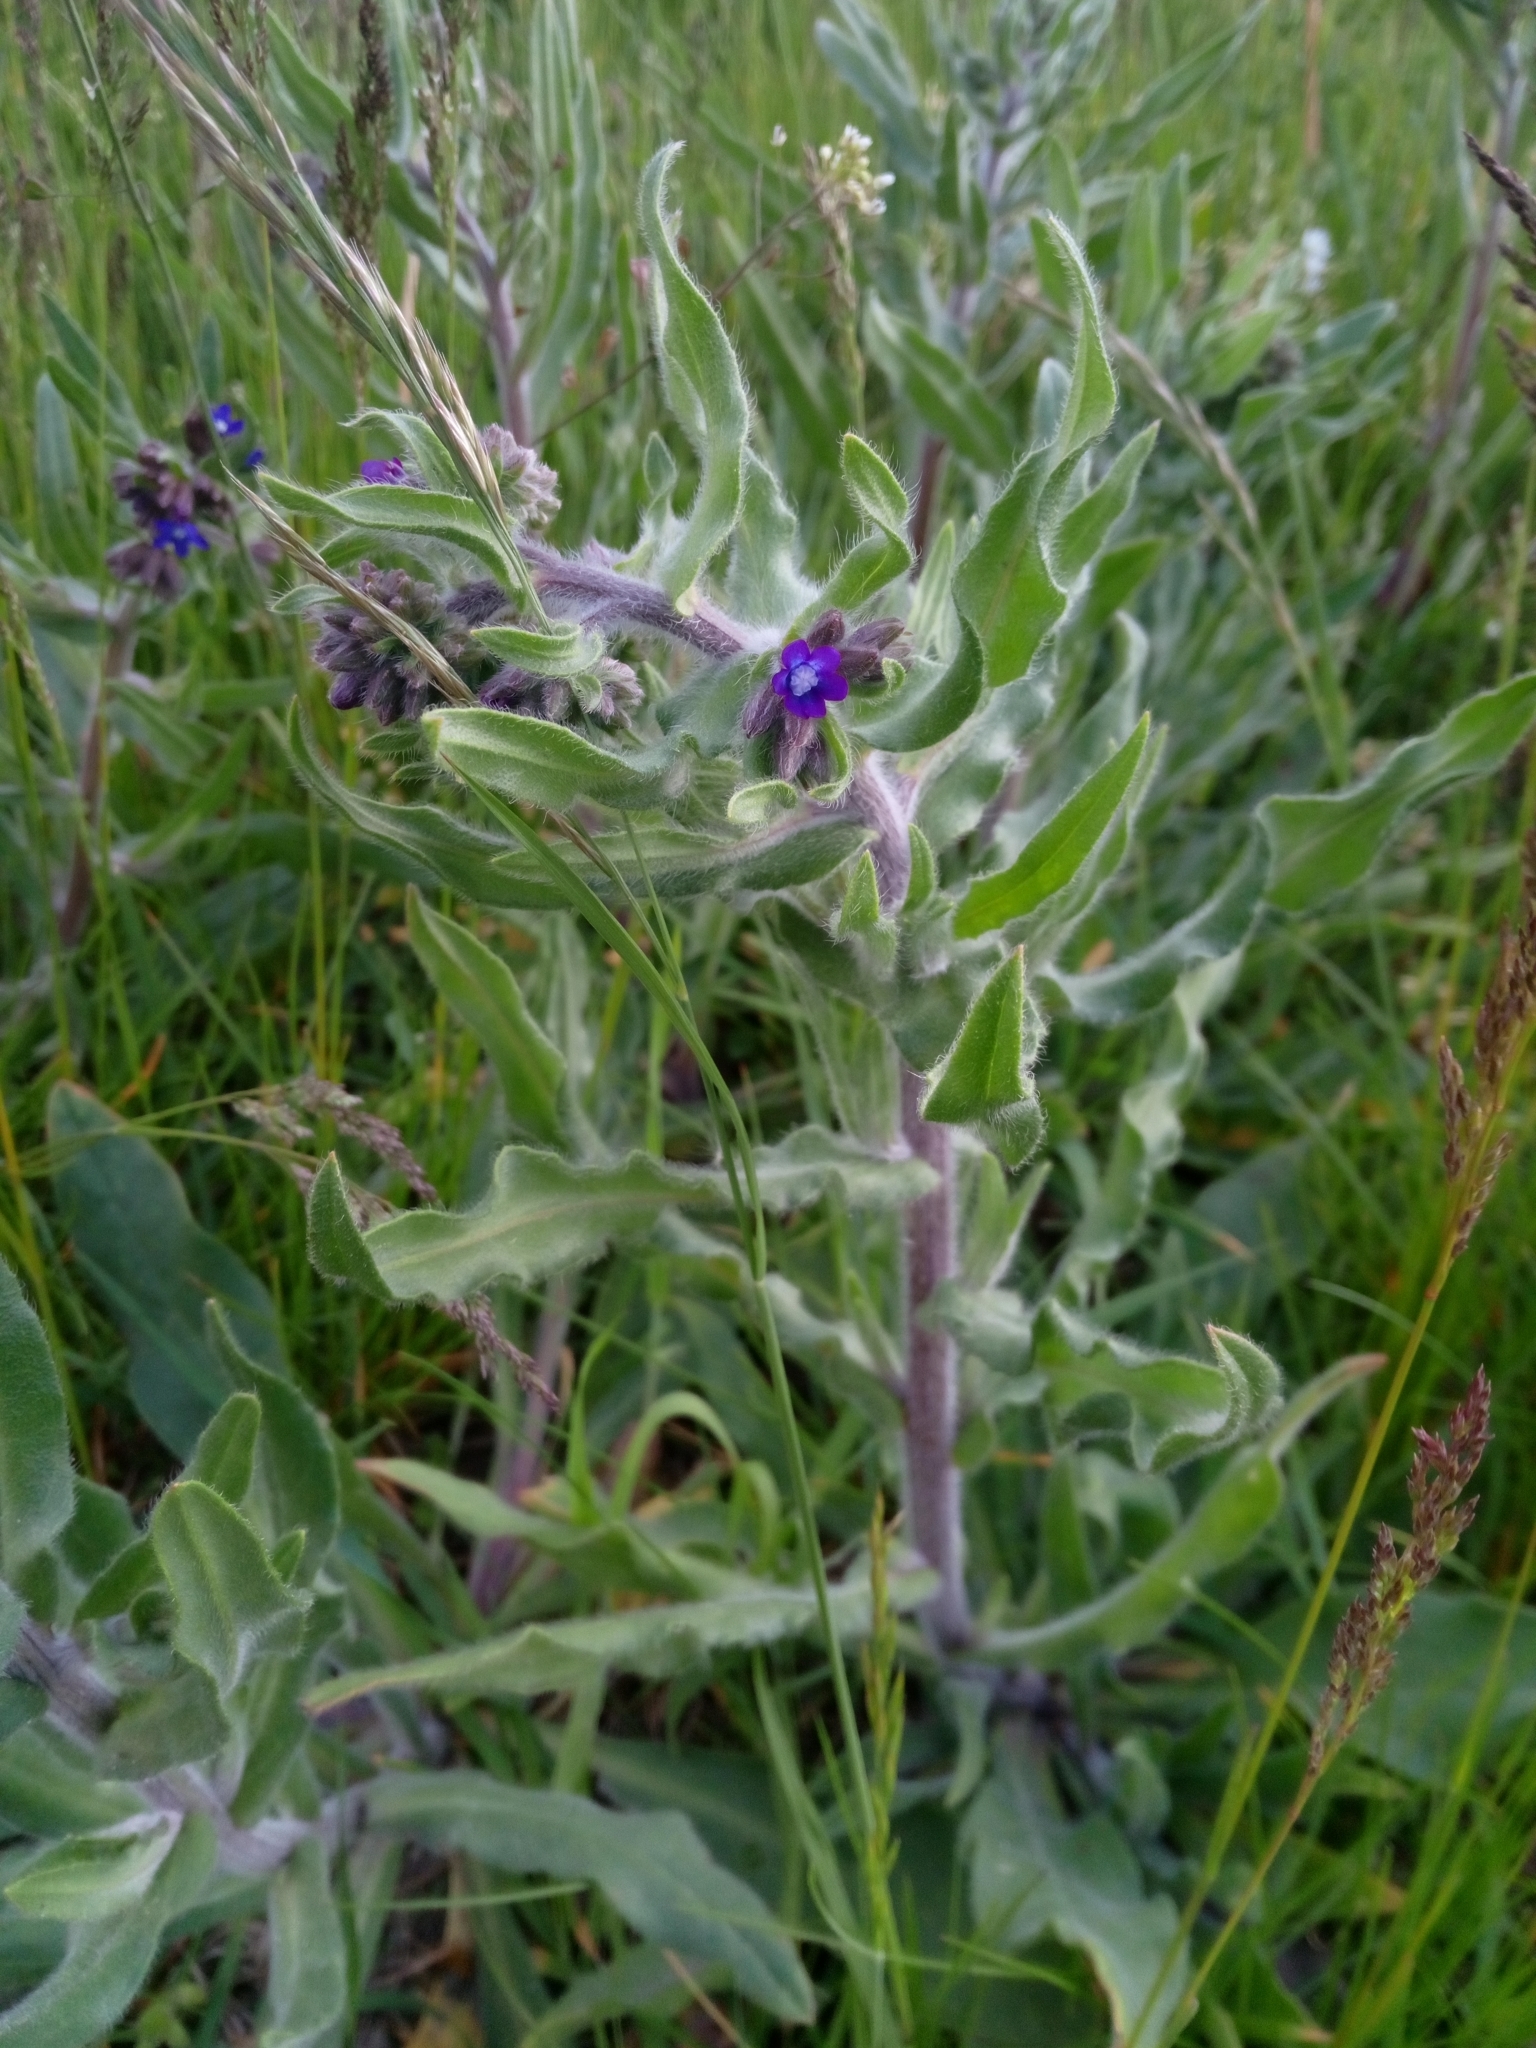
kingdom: Plantae
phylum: Tracheophyta
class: Magnoliopsida
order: Boraginales
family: Boraginaceae
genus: Anchusa
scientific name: Anchusa officinalis
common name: Alkanet
